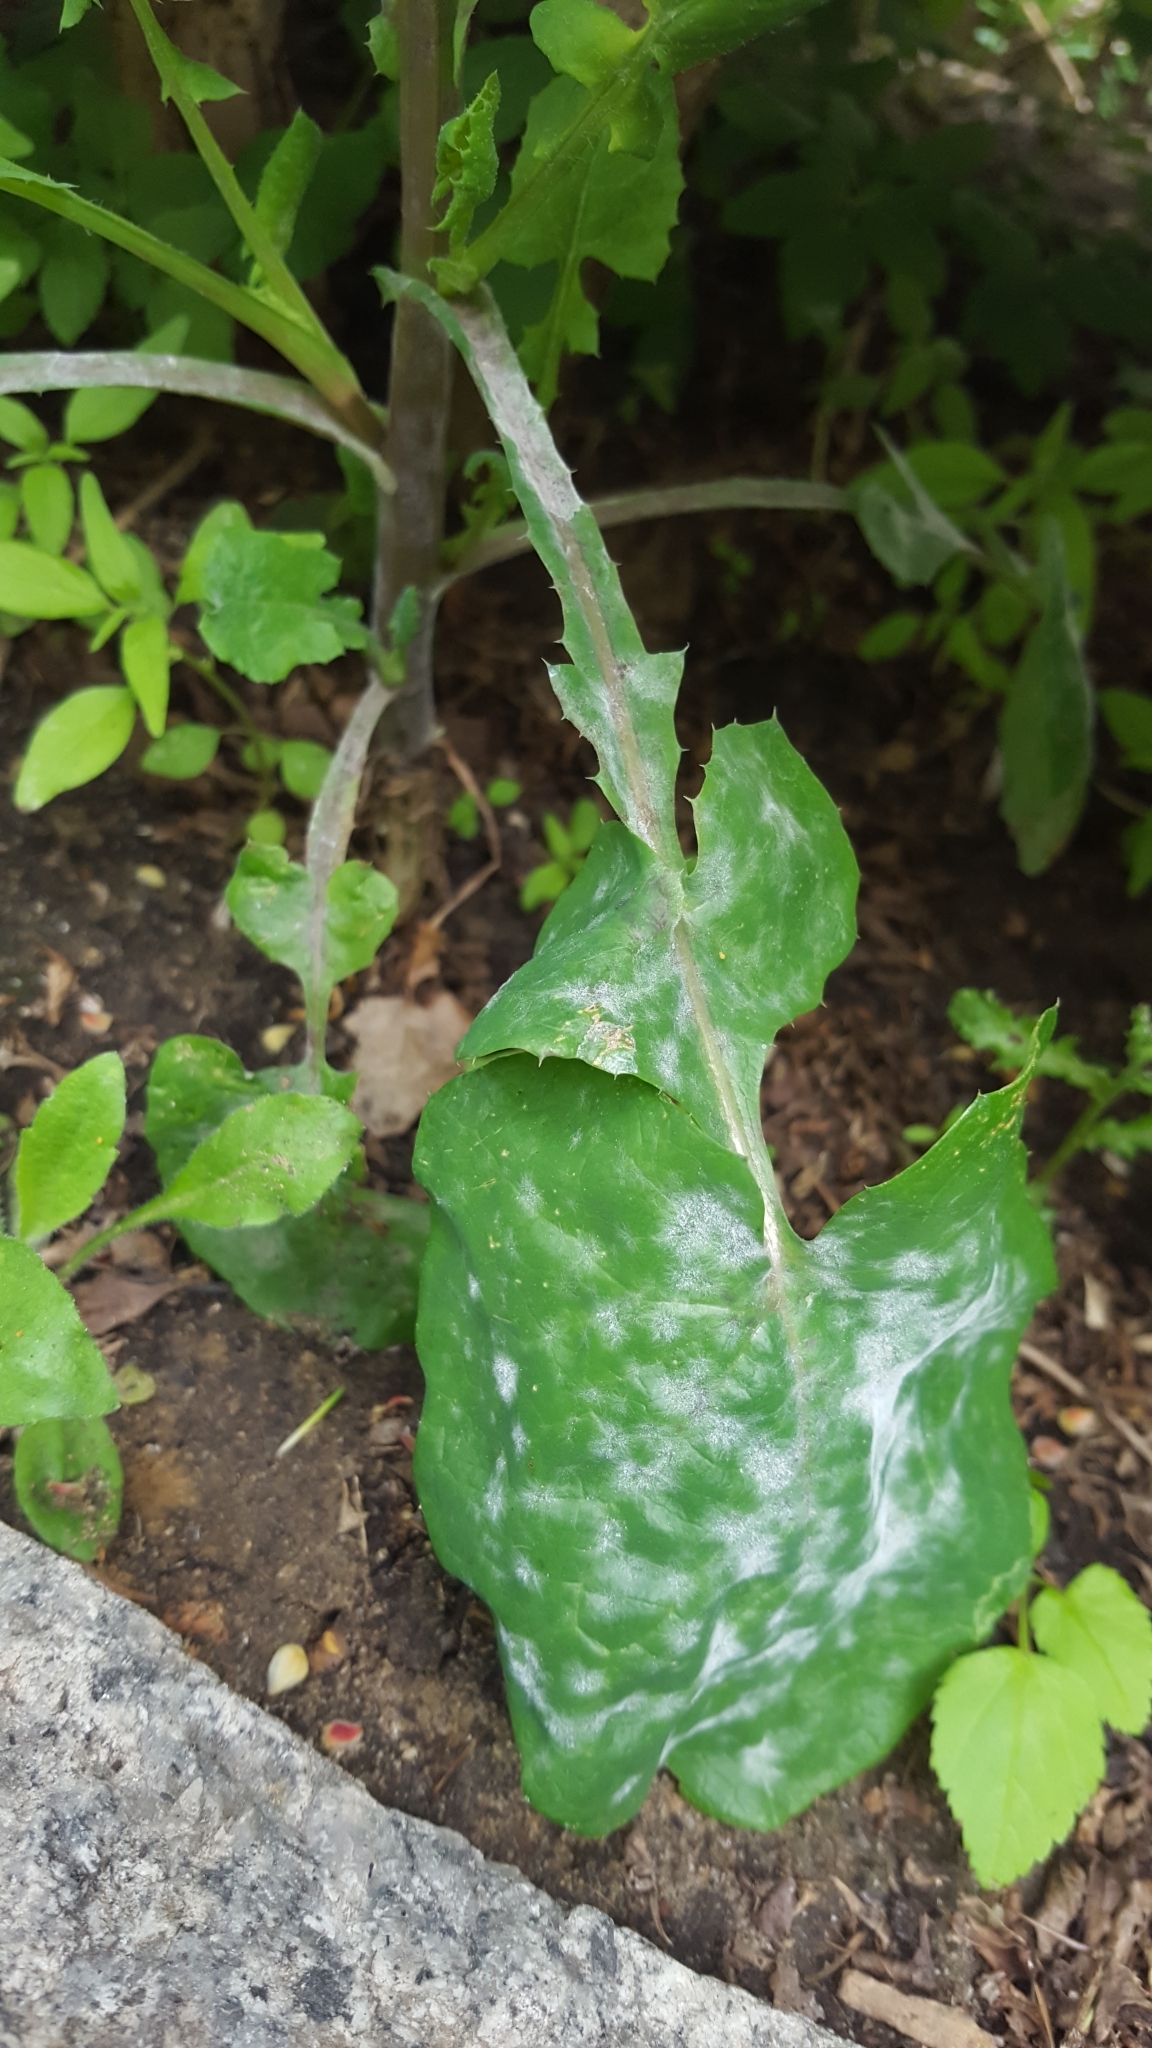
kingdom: Fungi
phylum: Ascomycota
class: Leotiomycetes
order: Helotiales
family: Erysiphaceae
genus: Golovinomyces
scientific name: Golovinomyces sonchicola
